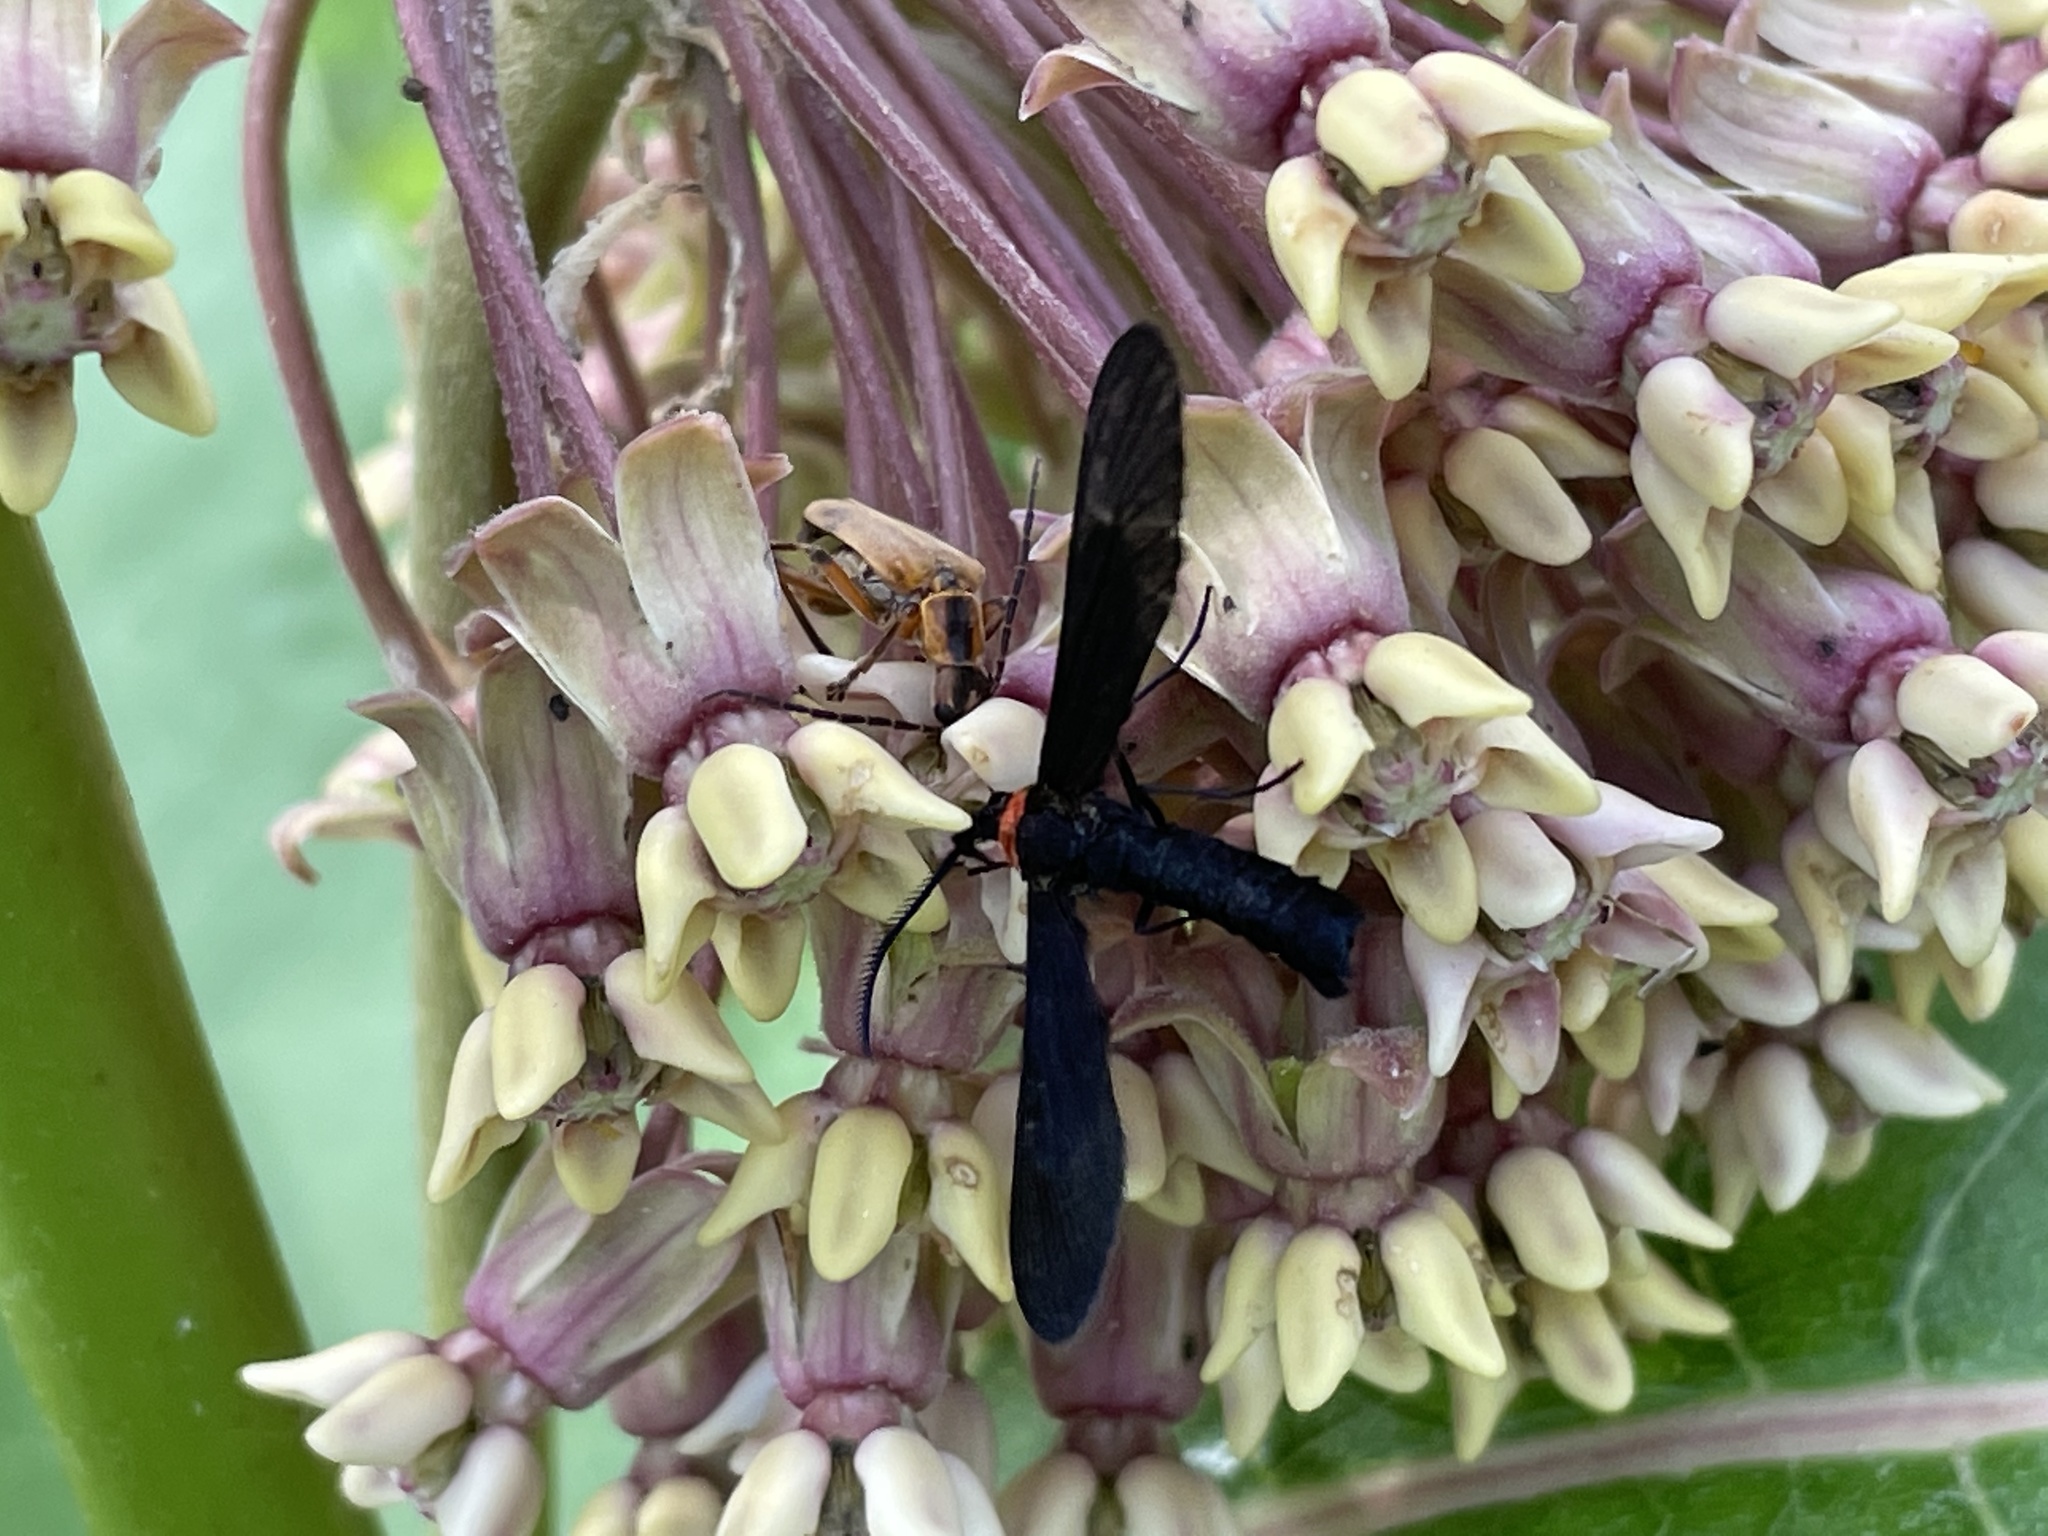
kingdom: Animalia
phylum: Arthropoda
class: Insecta
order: Lepidoptera
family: Zygaenidae
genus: Harrisina
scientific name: Harrisina americana
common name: Grapeleaf skeletonizer moth
